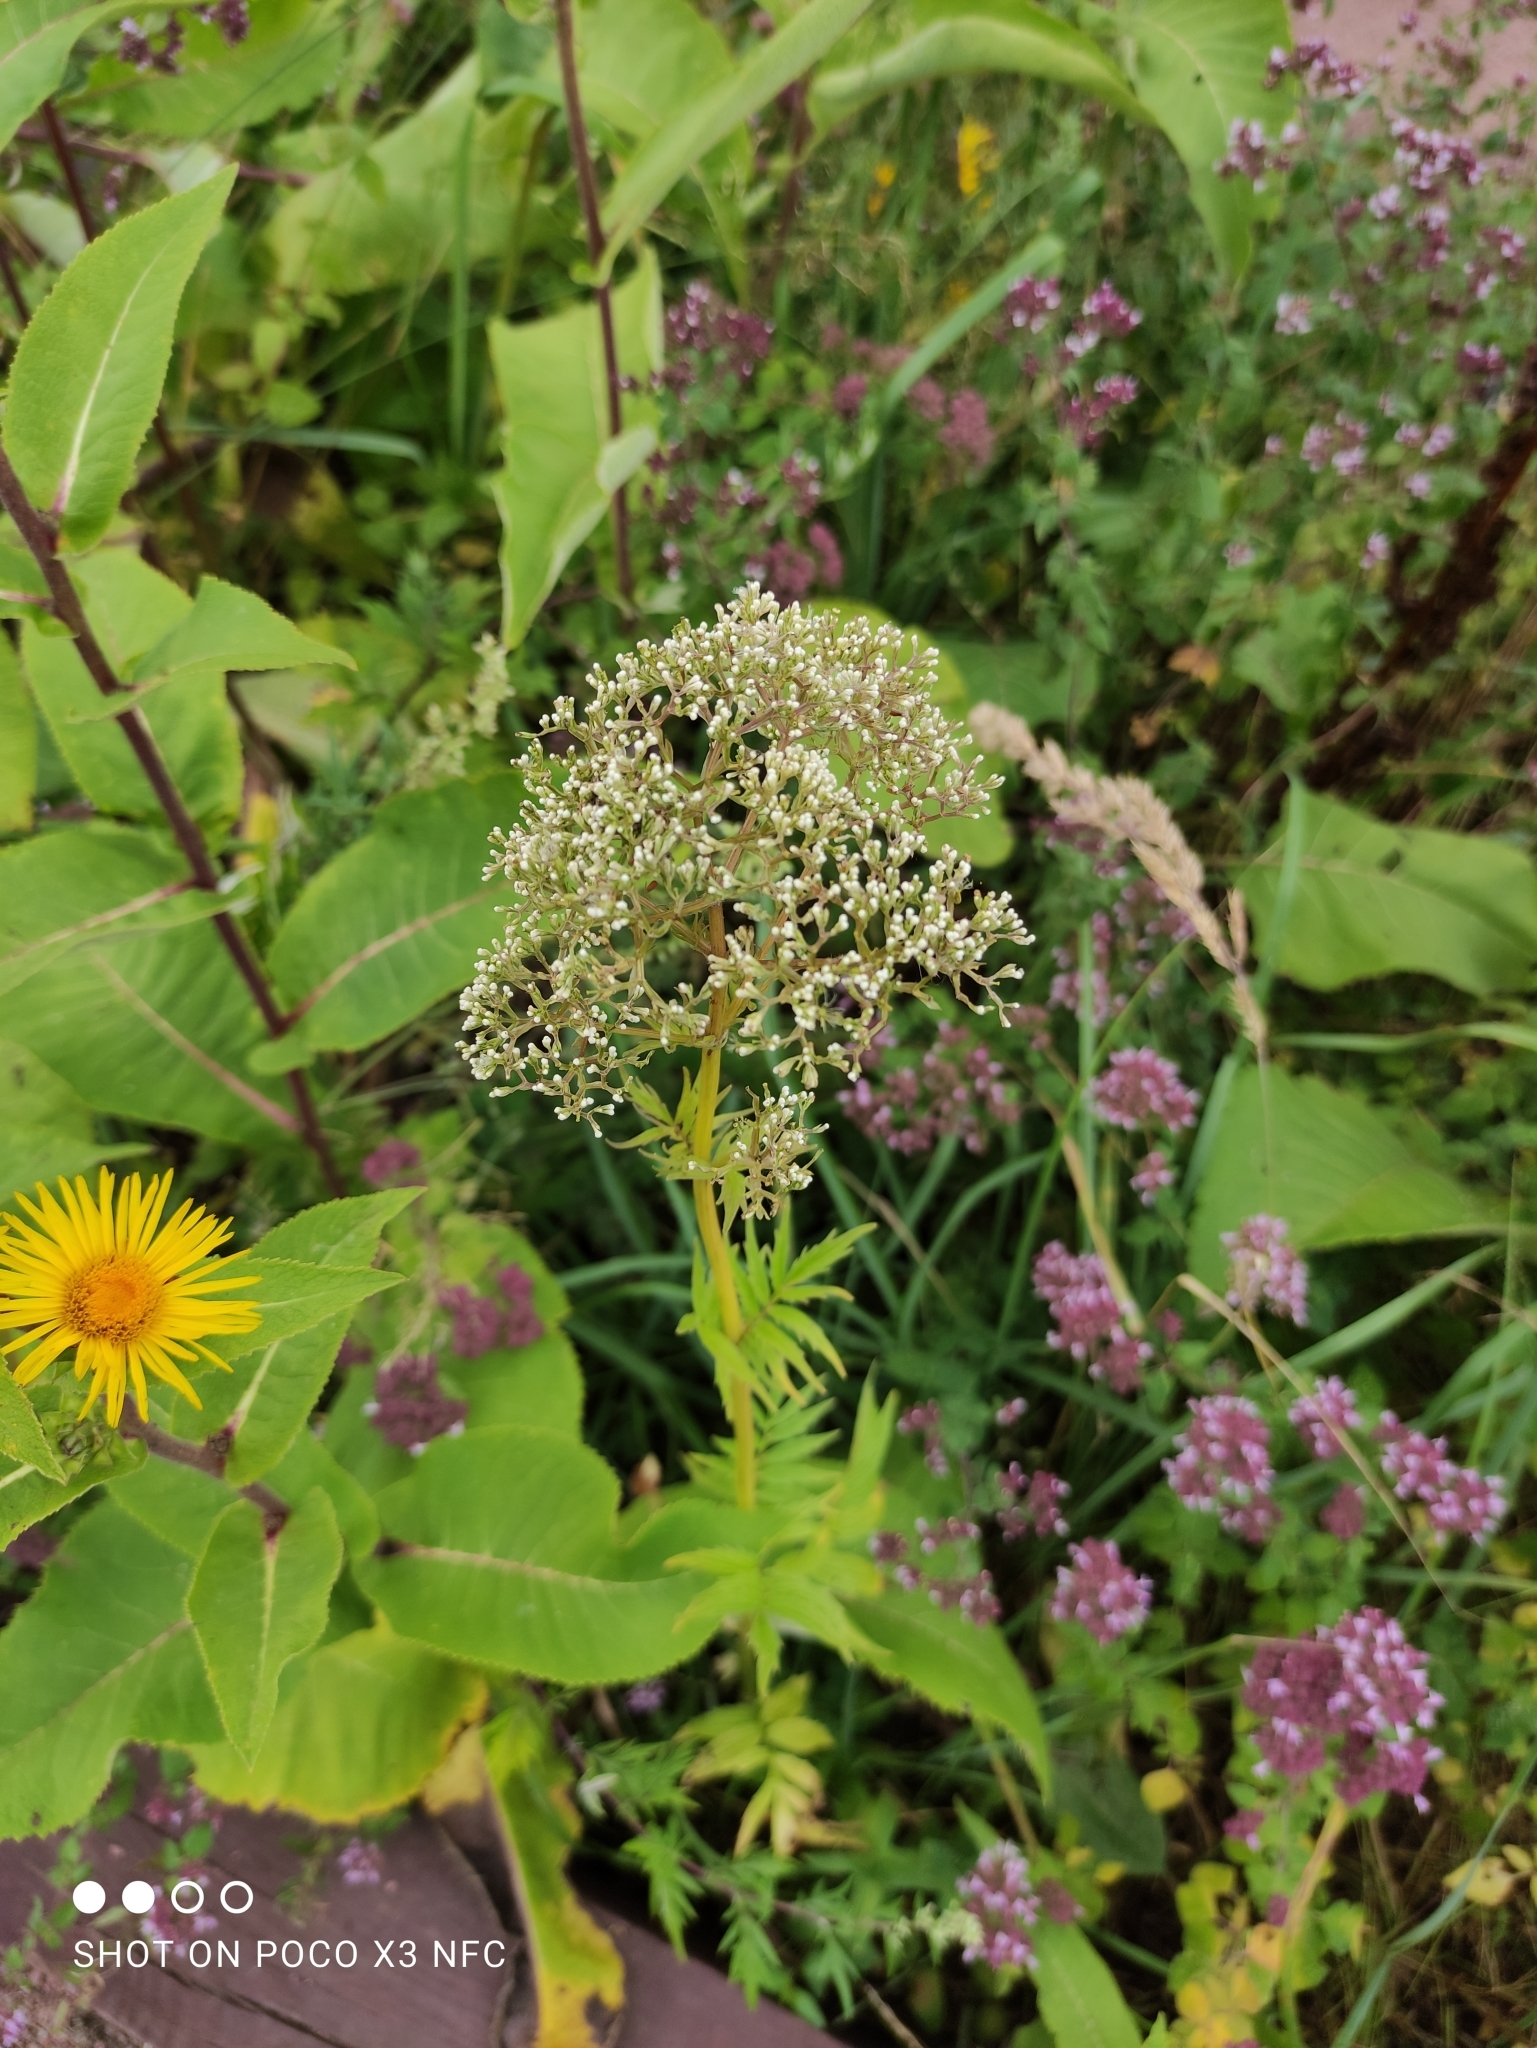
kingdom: Plantae
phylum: Tracheophyta
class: Magnoliopsida
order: Dipsacales
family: Caprifoliaceae
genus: Valeriana
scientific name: Valeriana officinalis
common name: Common valerian
